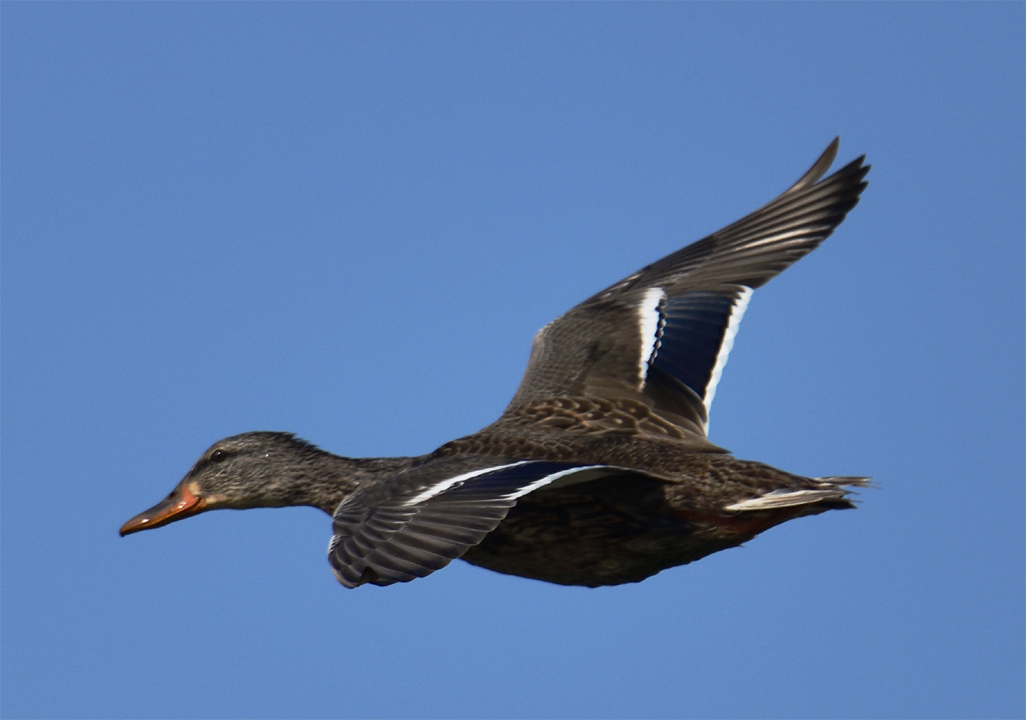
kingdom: Animalia
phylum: Chordata
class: Aves
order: Anseriformes
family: Anatidae
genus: Anas
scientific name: Anas platyrhynchos
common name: Mallard
